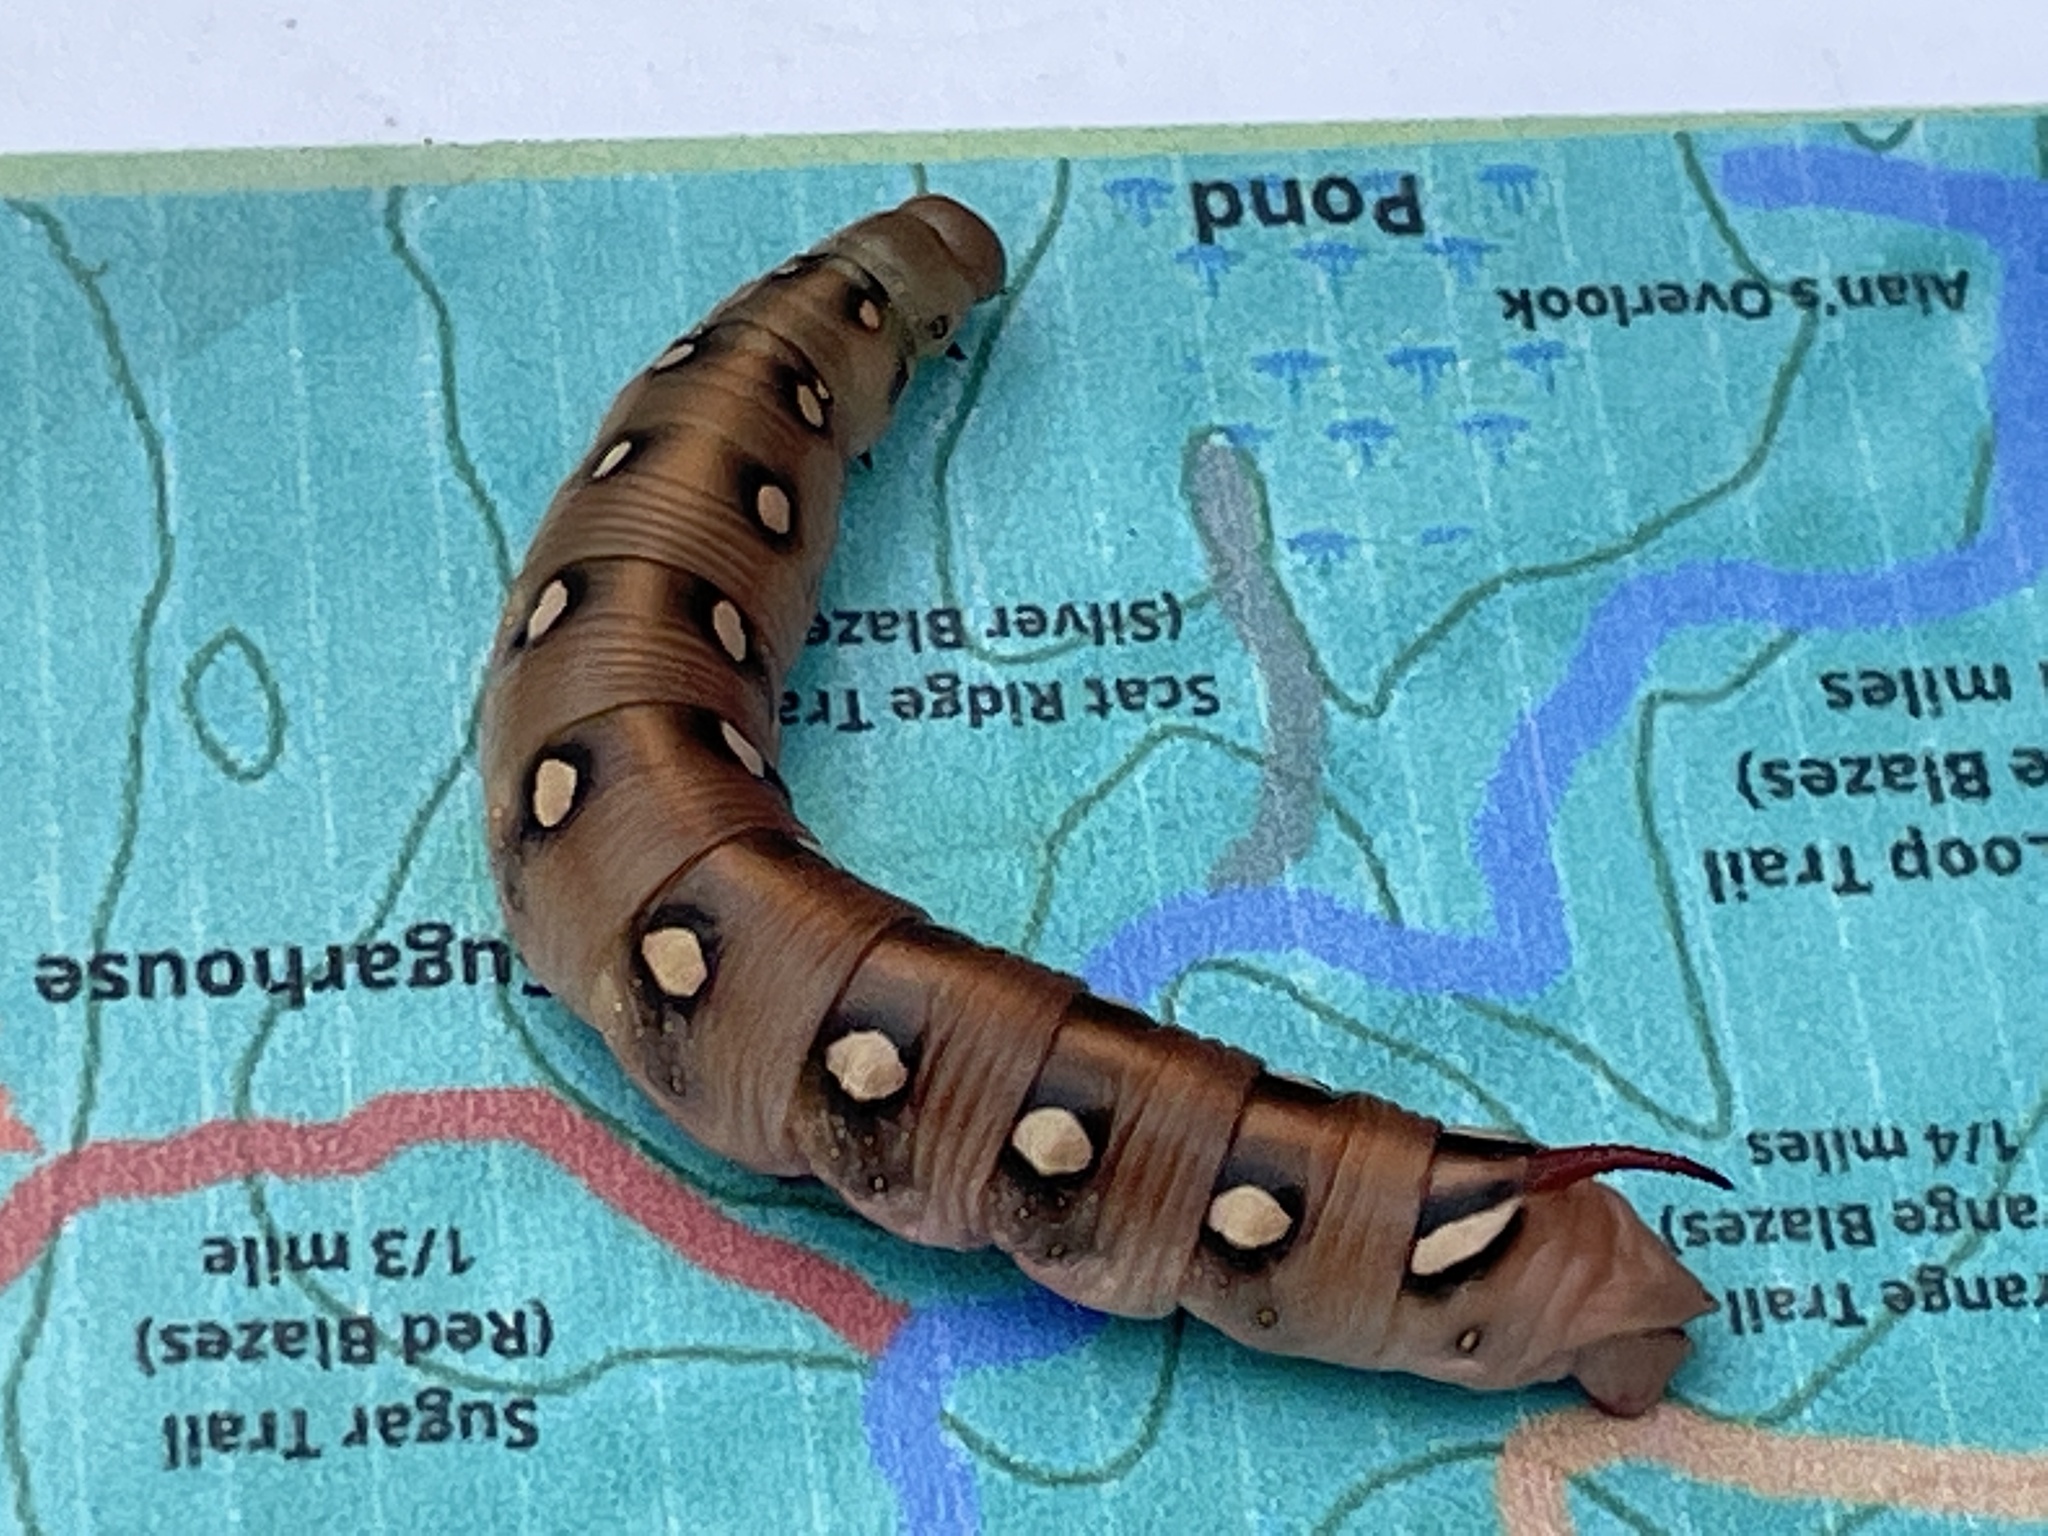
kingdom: Animalia
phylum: Arthropoda
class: Insecta
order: Lepidoptera
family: Sphingidae
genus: Hyles
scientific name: Hyles gallii
